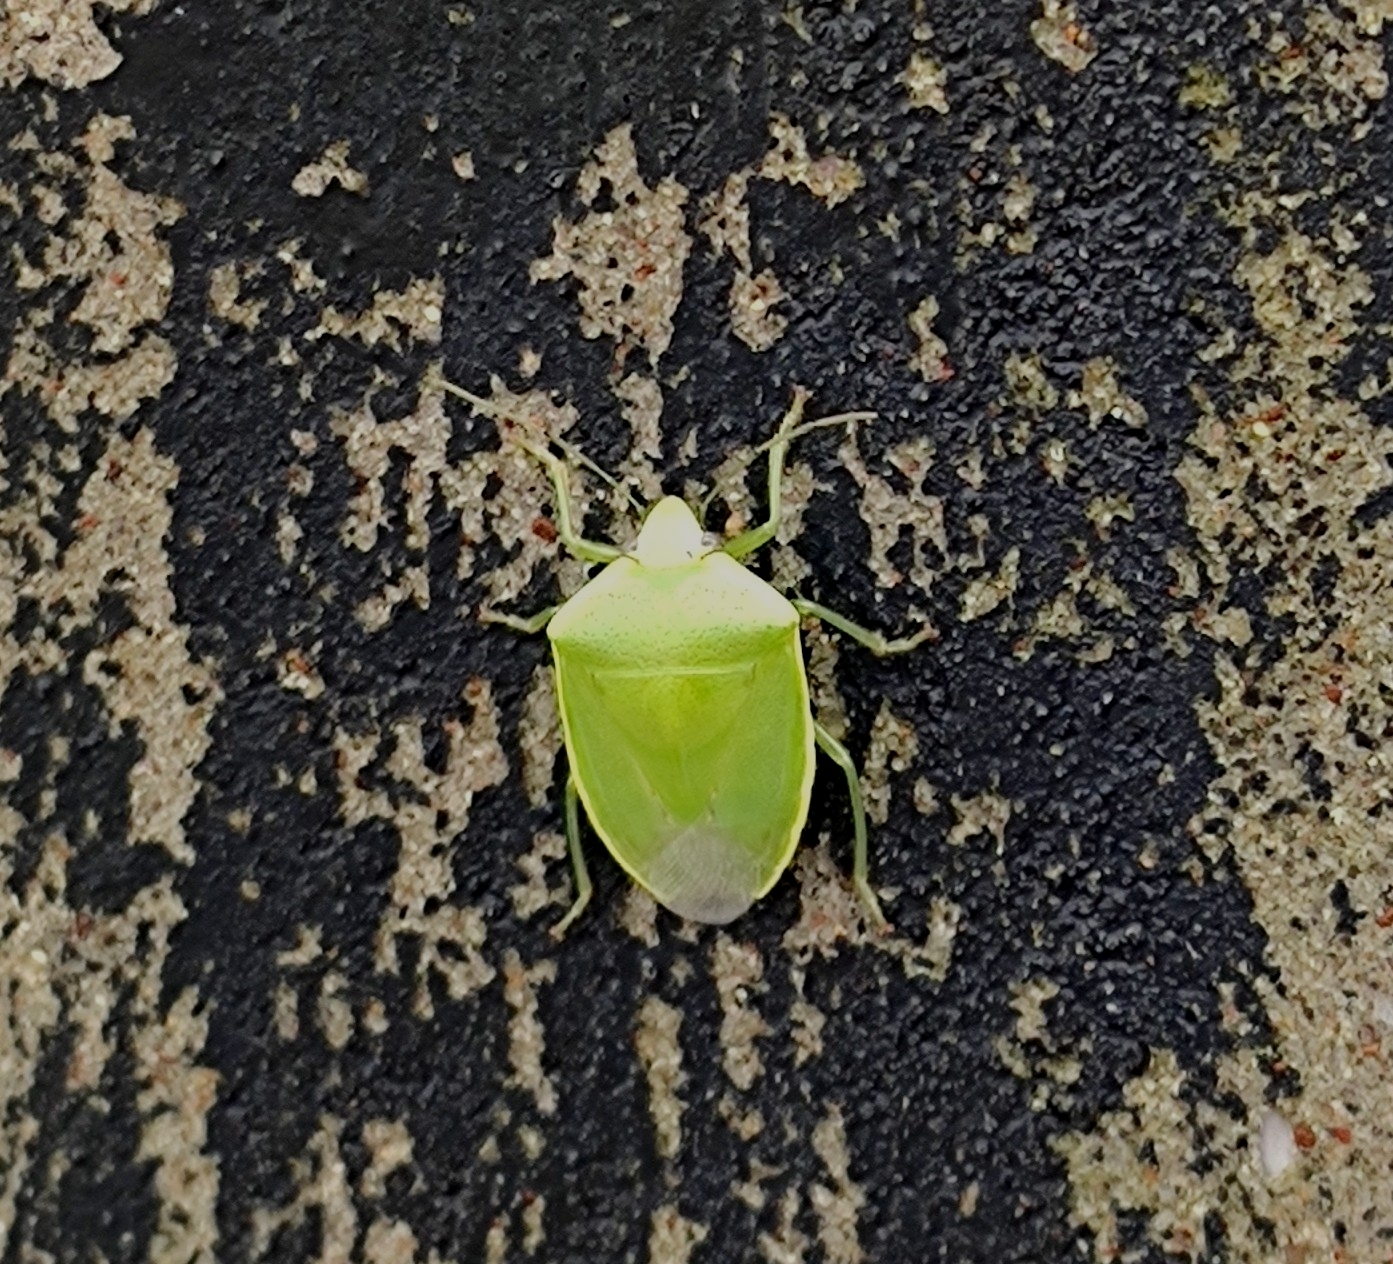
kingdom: Animalia
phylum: Arthropoda
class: Insecta
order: Hemiptera
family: Pentatomidae
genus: Acrosternum
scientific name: Acrosternum gramineum
